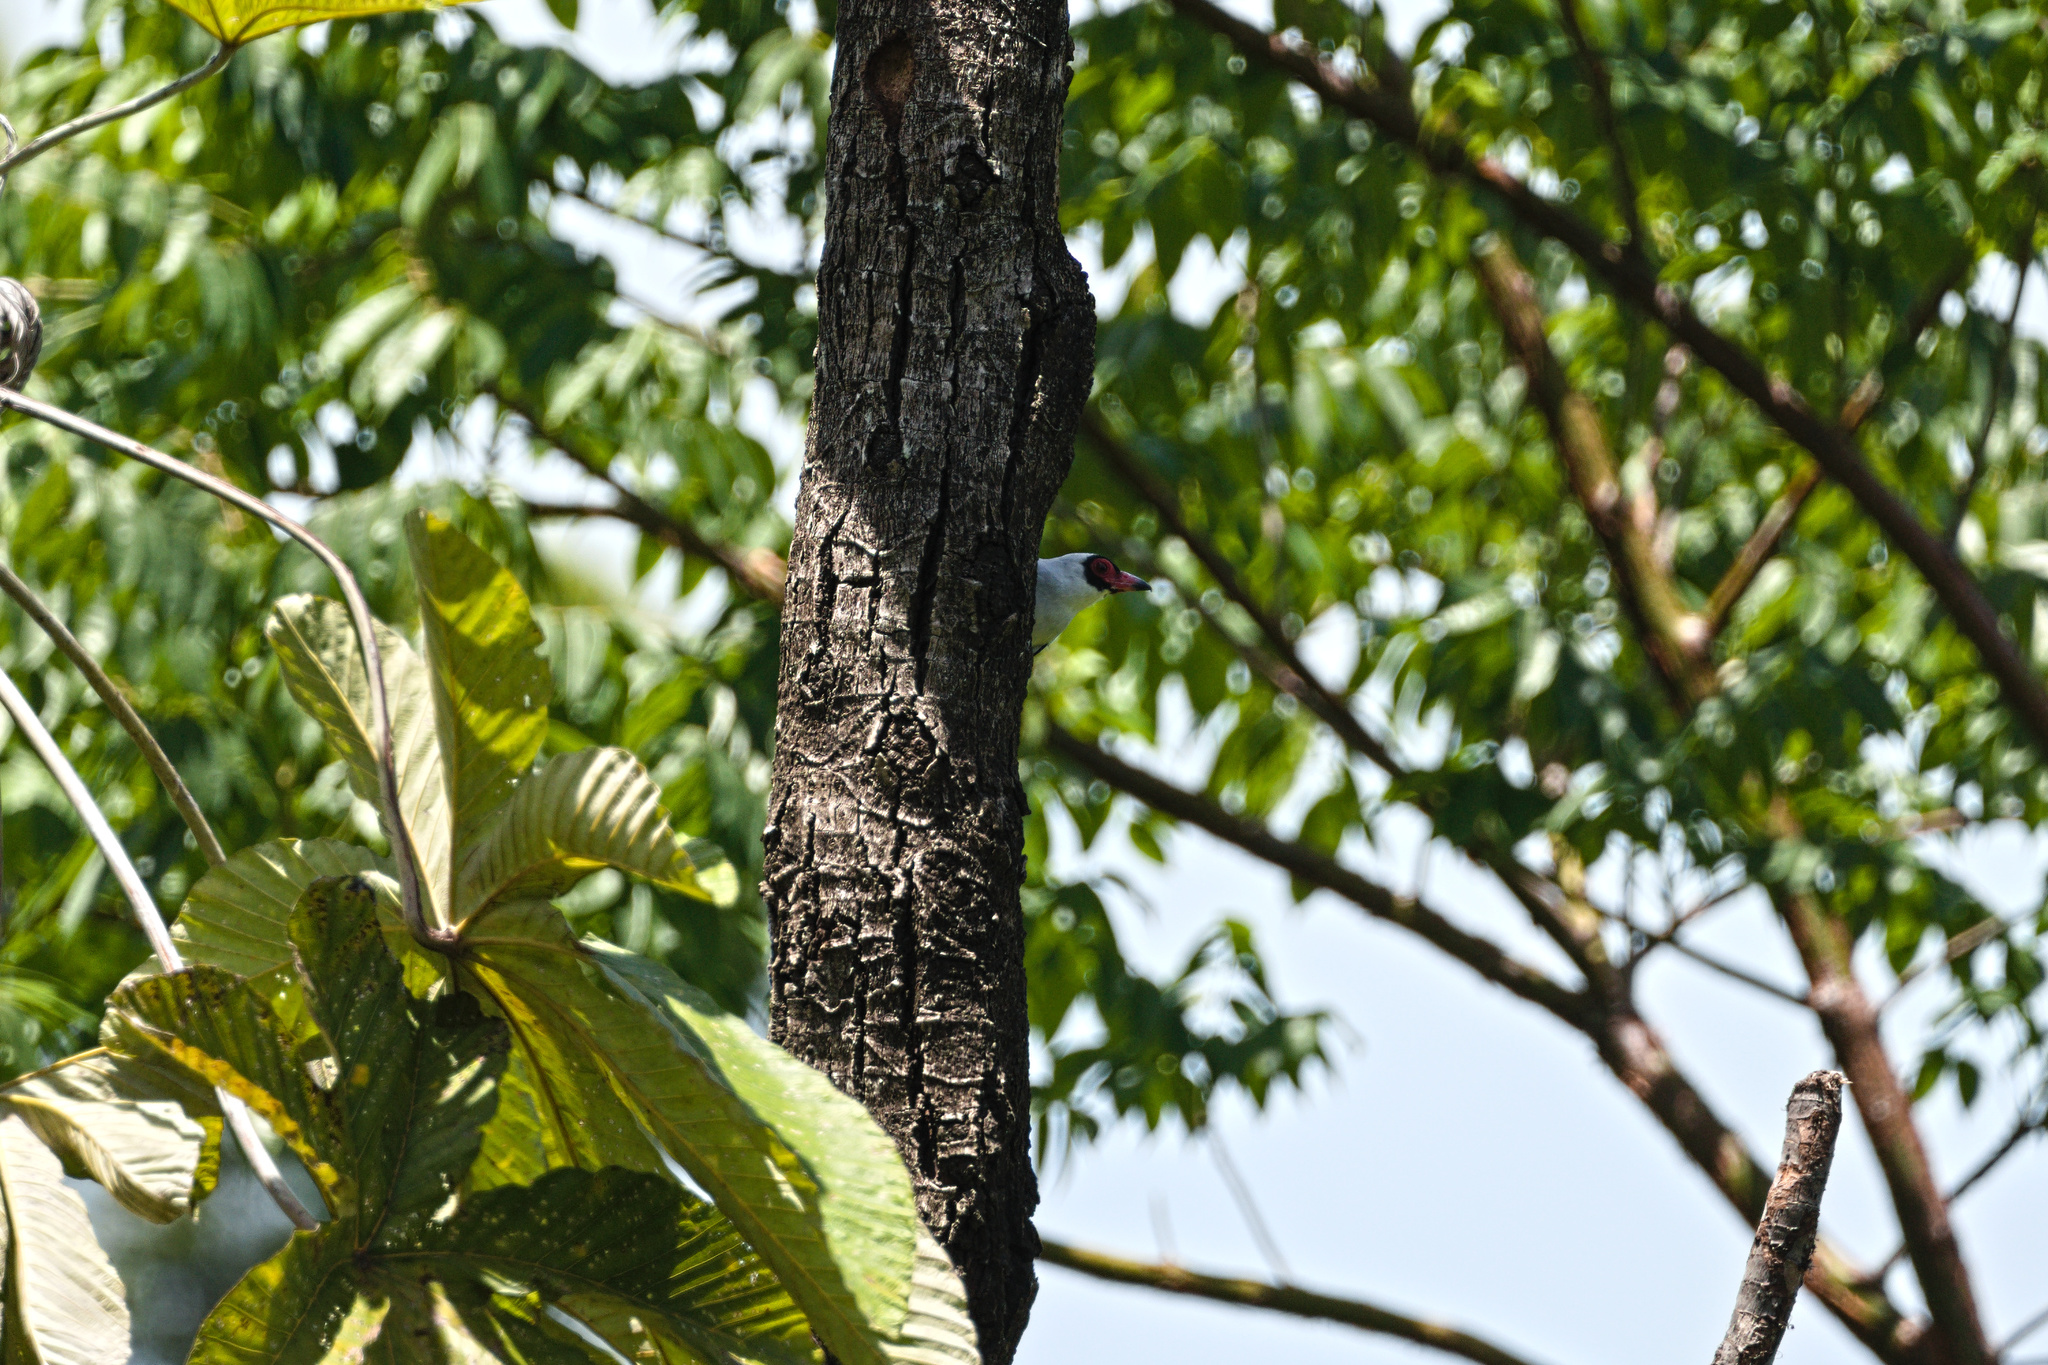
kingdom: Animalia
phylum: Chordata
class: Aves
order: Passeriformes
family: Cotingidae
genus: Tityra
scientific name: Tityra semifasciata
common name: Masked tityra
